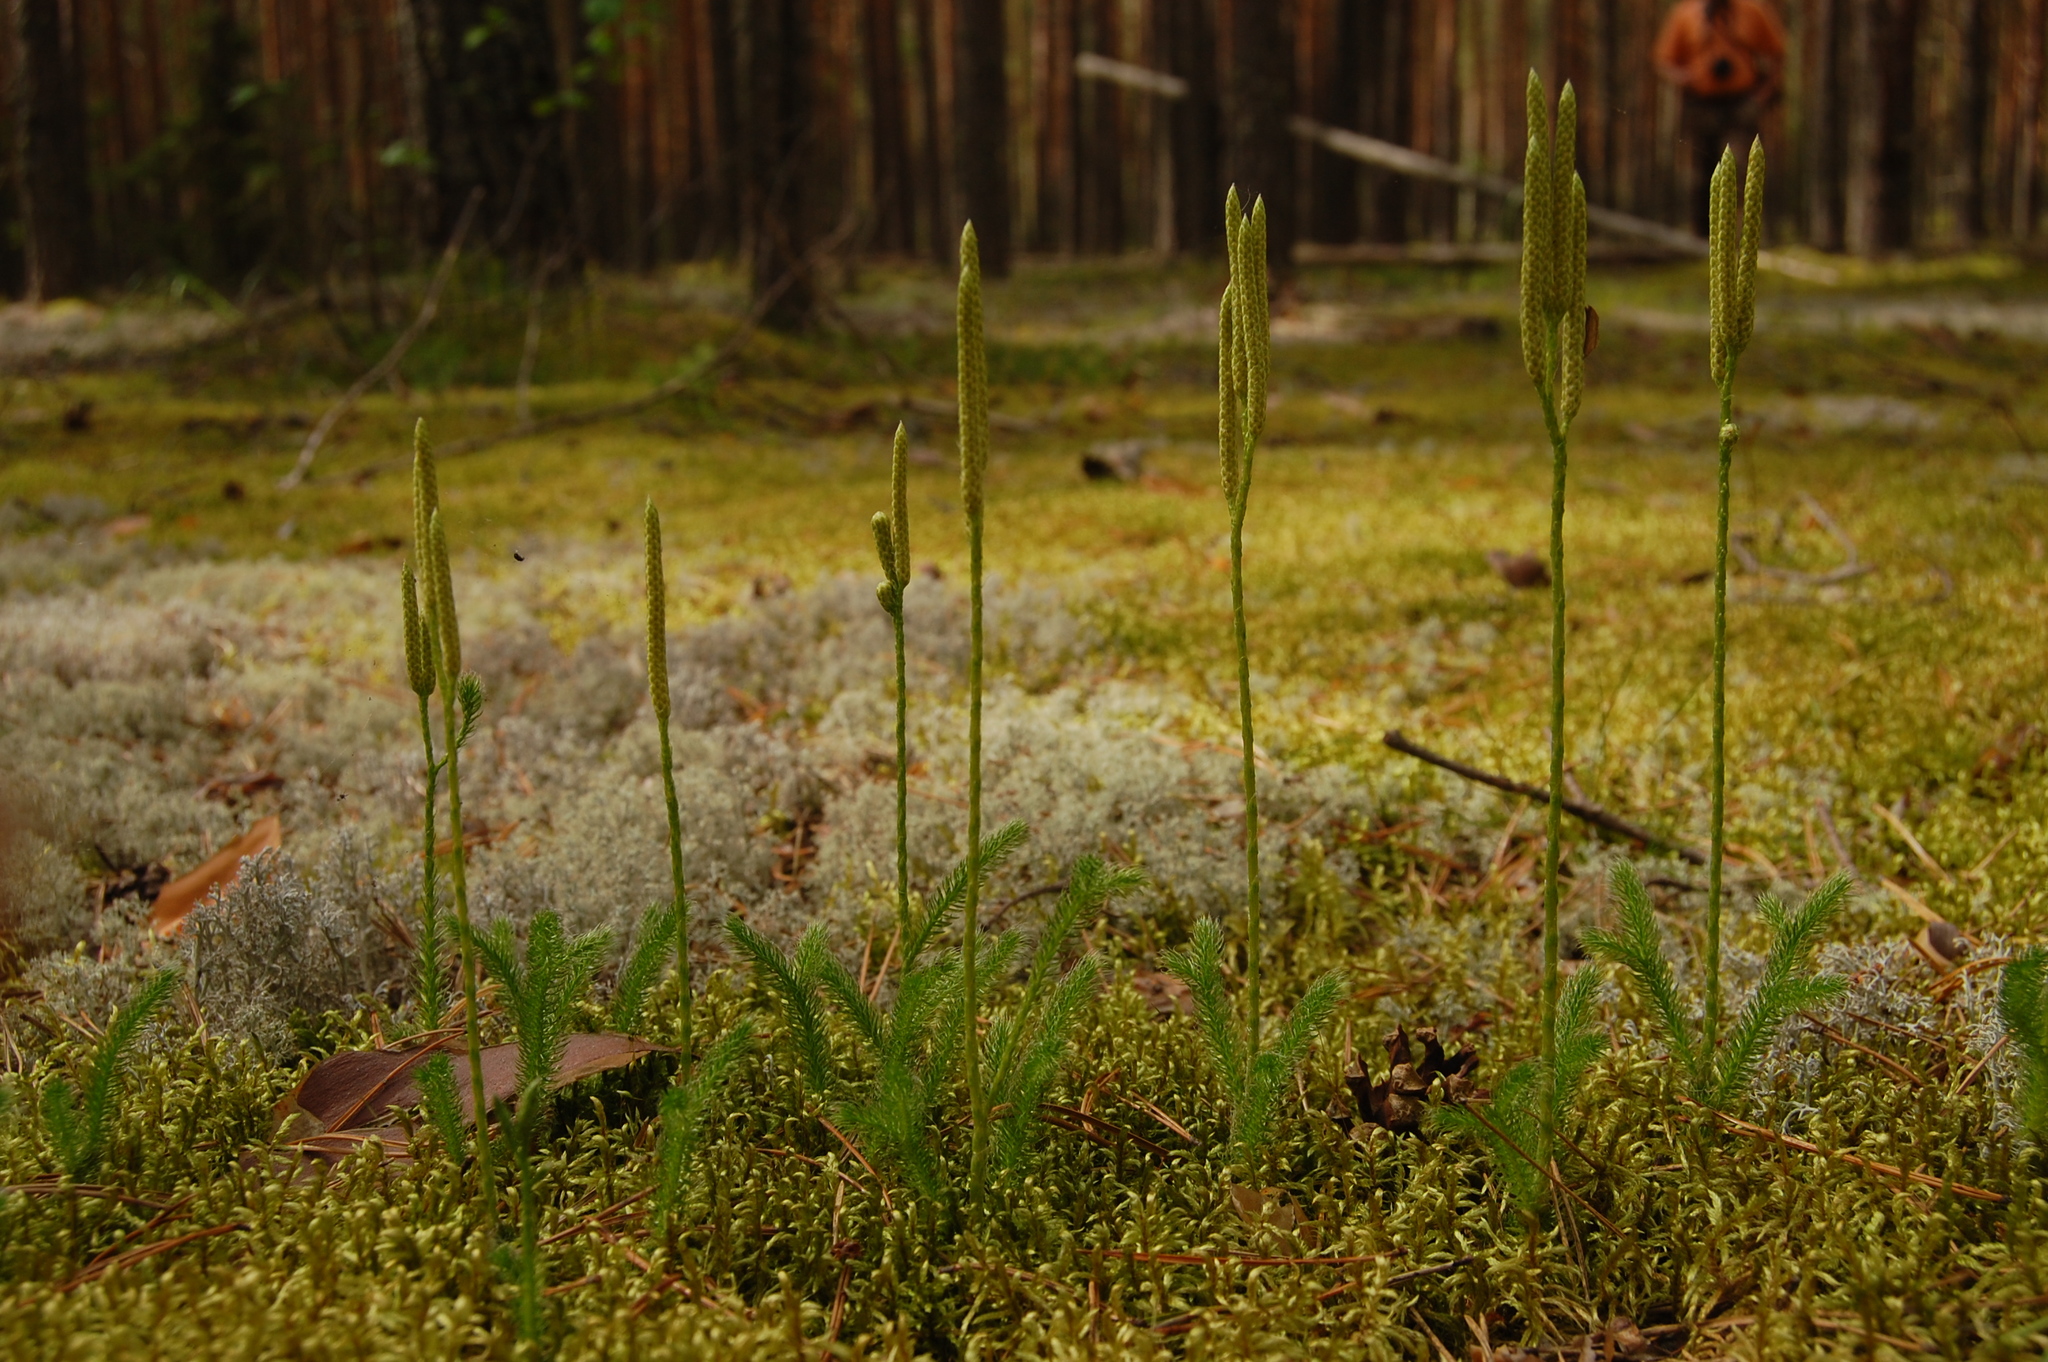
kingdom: Plantae
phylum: Tracheophyta
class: Lycopodiopsida
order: Lycopodiales
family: Lycopodiaceae
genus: Lycopodium
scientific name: Lycopodium clavatum
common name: Stag's-horn clubmoss
